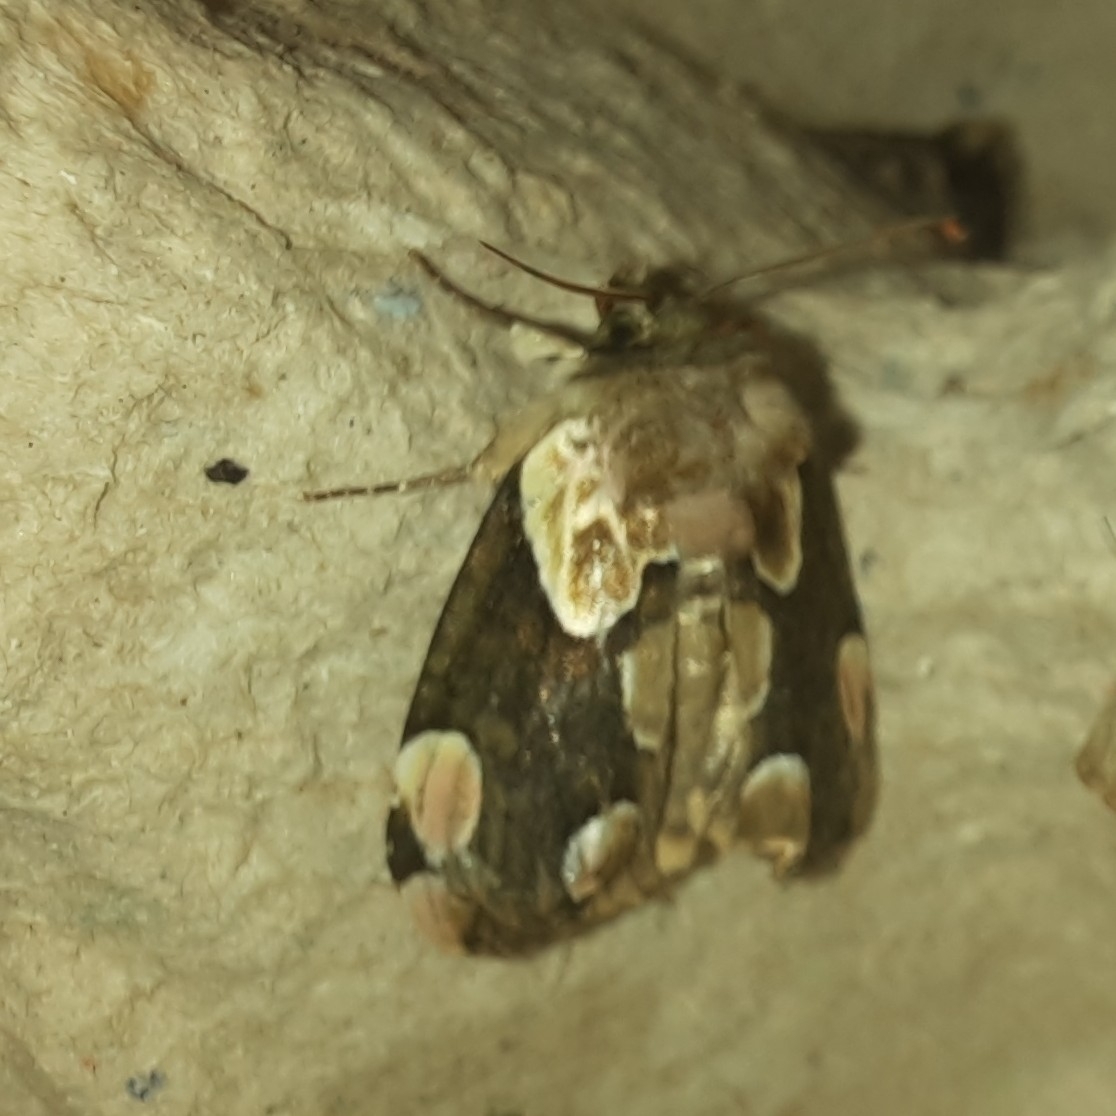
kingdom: Animalia
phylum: Arthropoda
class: Insecta
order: Lepidoptera
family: Drepanidae
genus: Thyatira
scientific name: Thyatira batis
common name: Peach blossom
